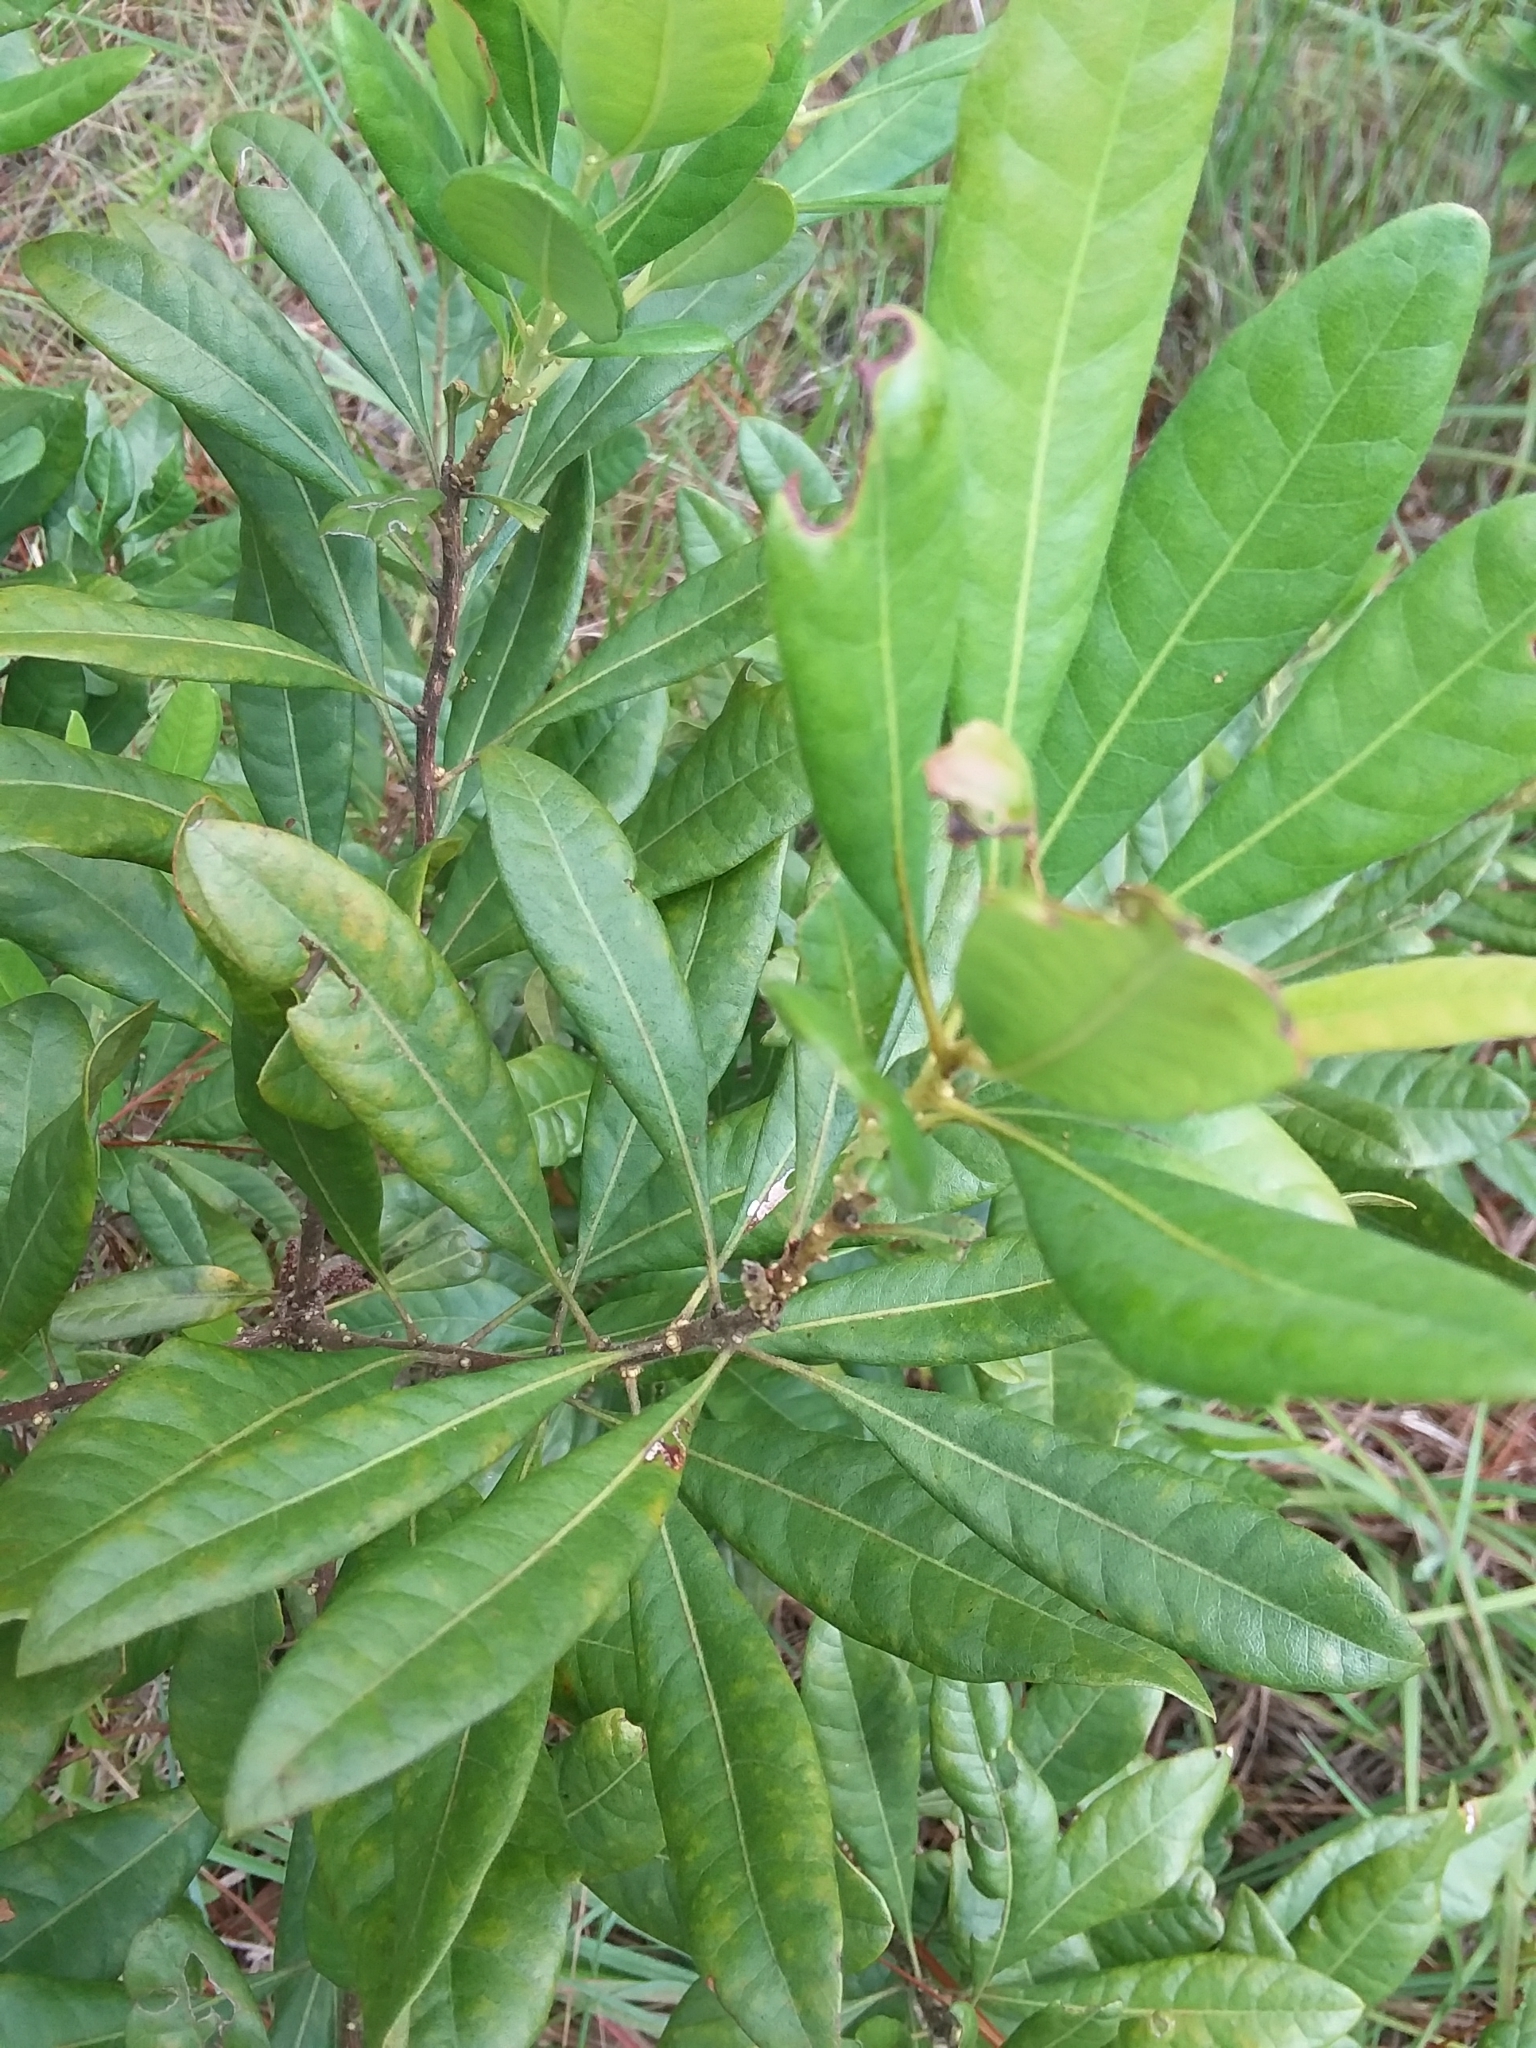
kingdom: Plantae
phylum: Tracheophyta
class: Magnoliopsida
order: Fagales
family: Myricaceae
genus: Morella
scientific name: Morella caroliniensis
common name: Evergreen bayberry
